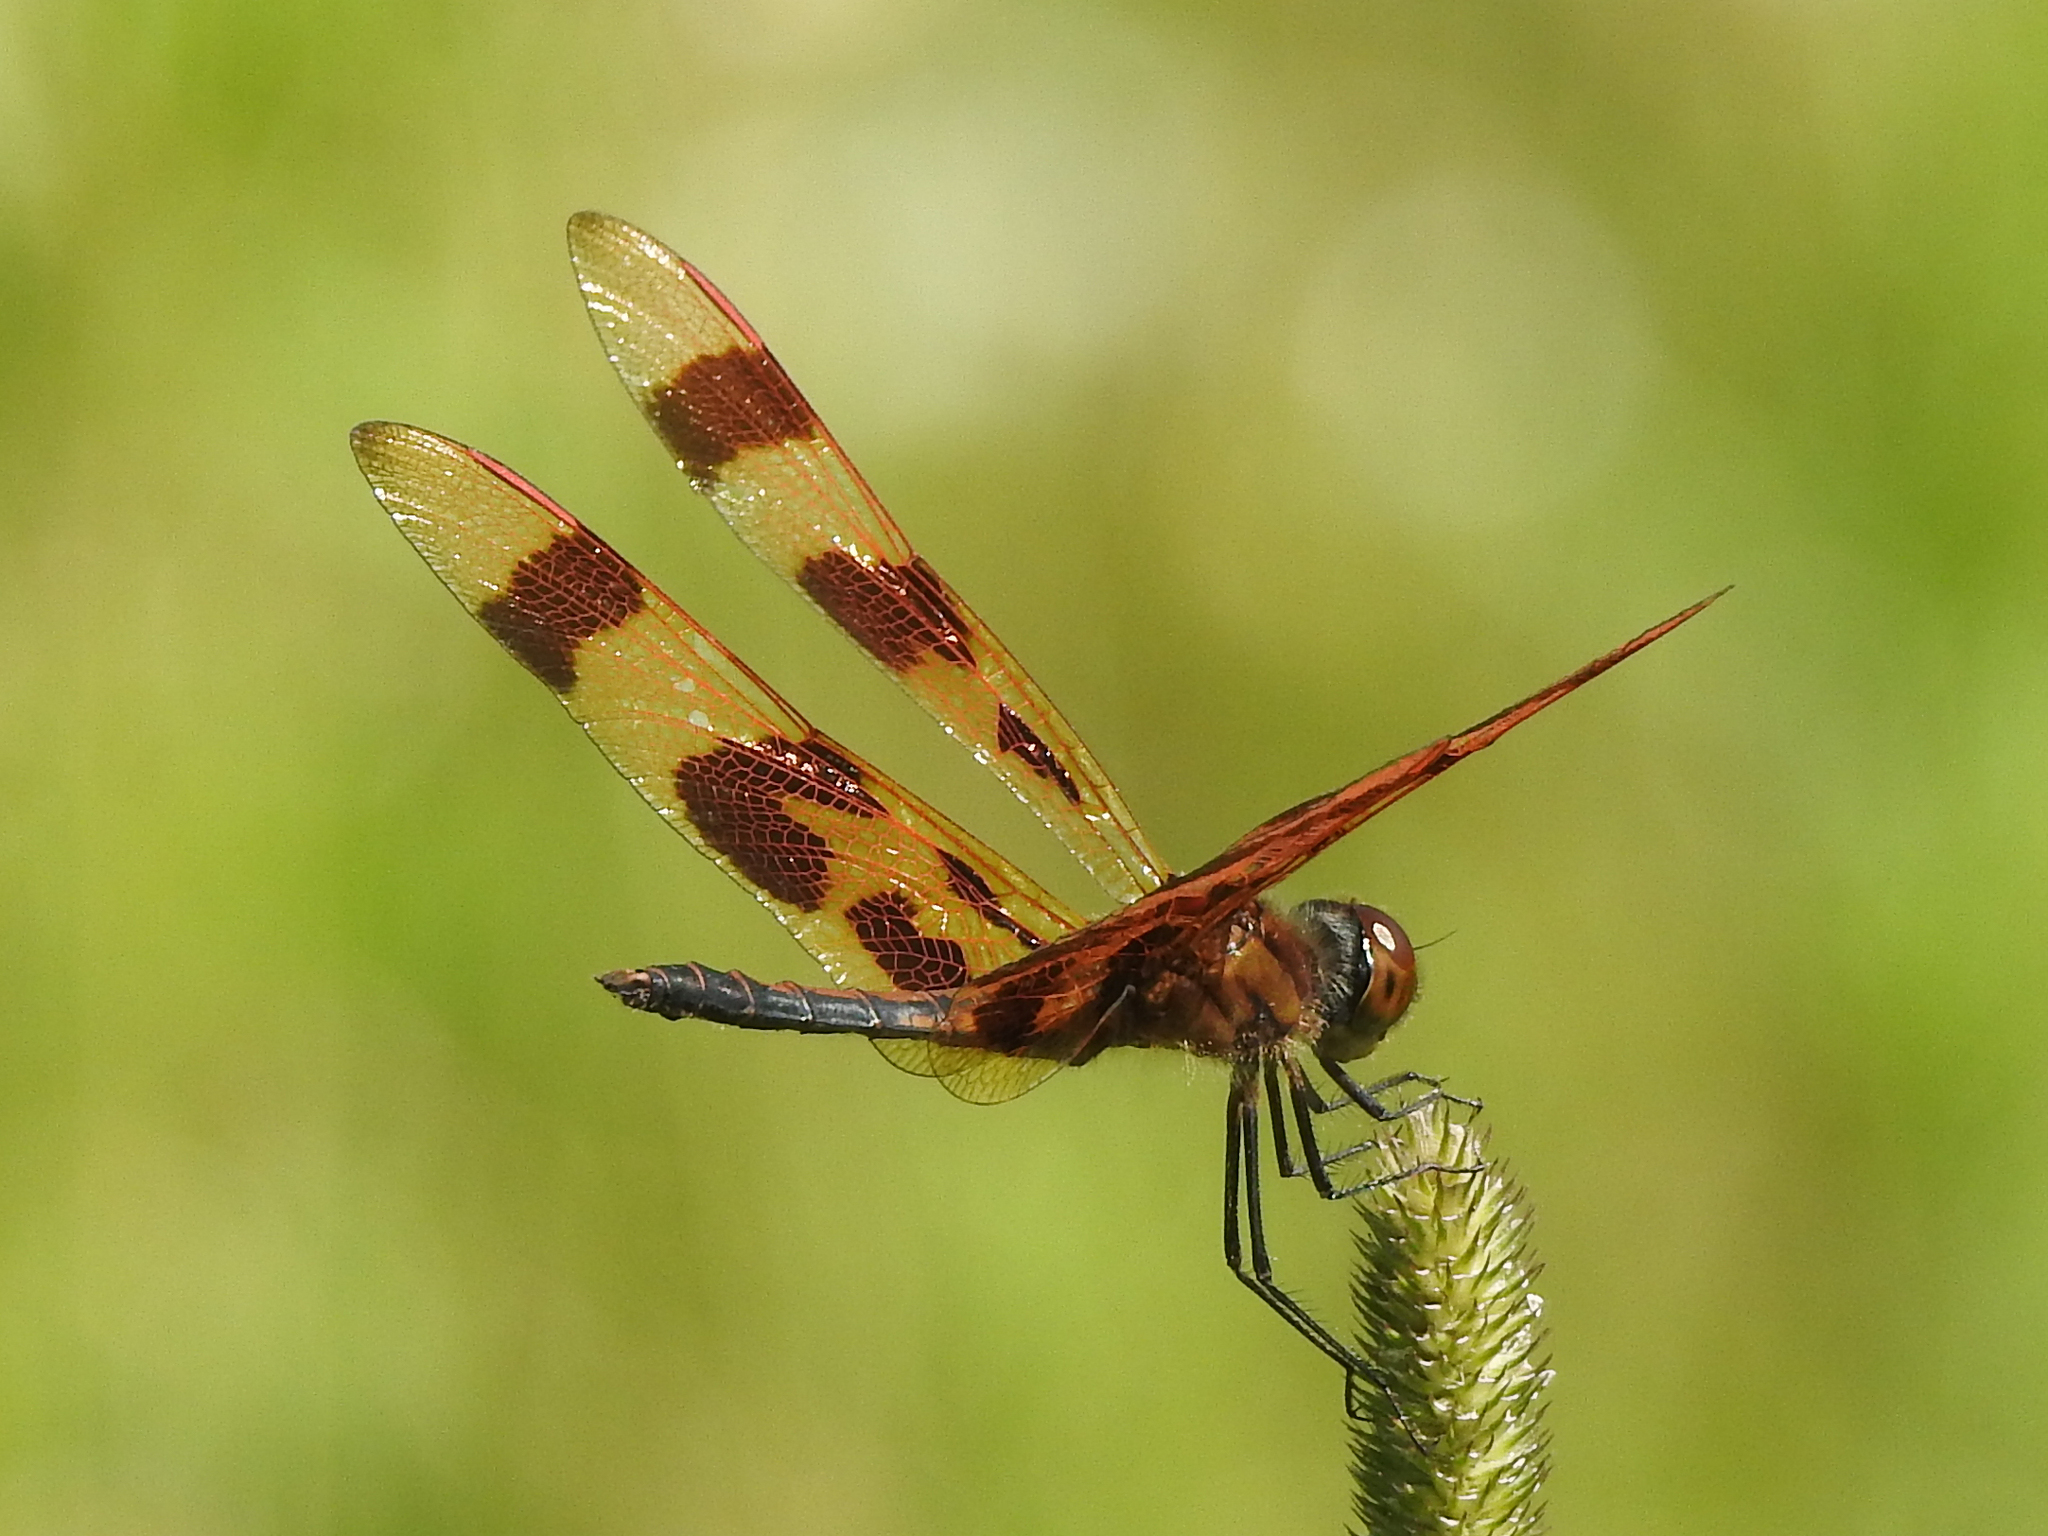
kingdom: Animalia
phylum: Arthropoda
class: Insecta
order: Odonata
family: Libellulidae
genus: Celithemis
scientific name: Celithemis eponina
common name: Halloween pennant
